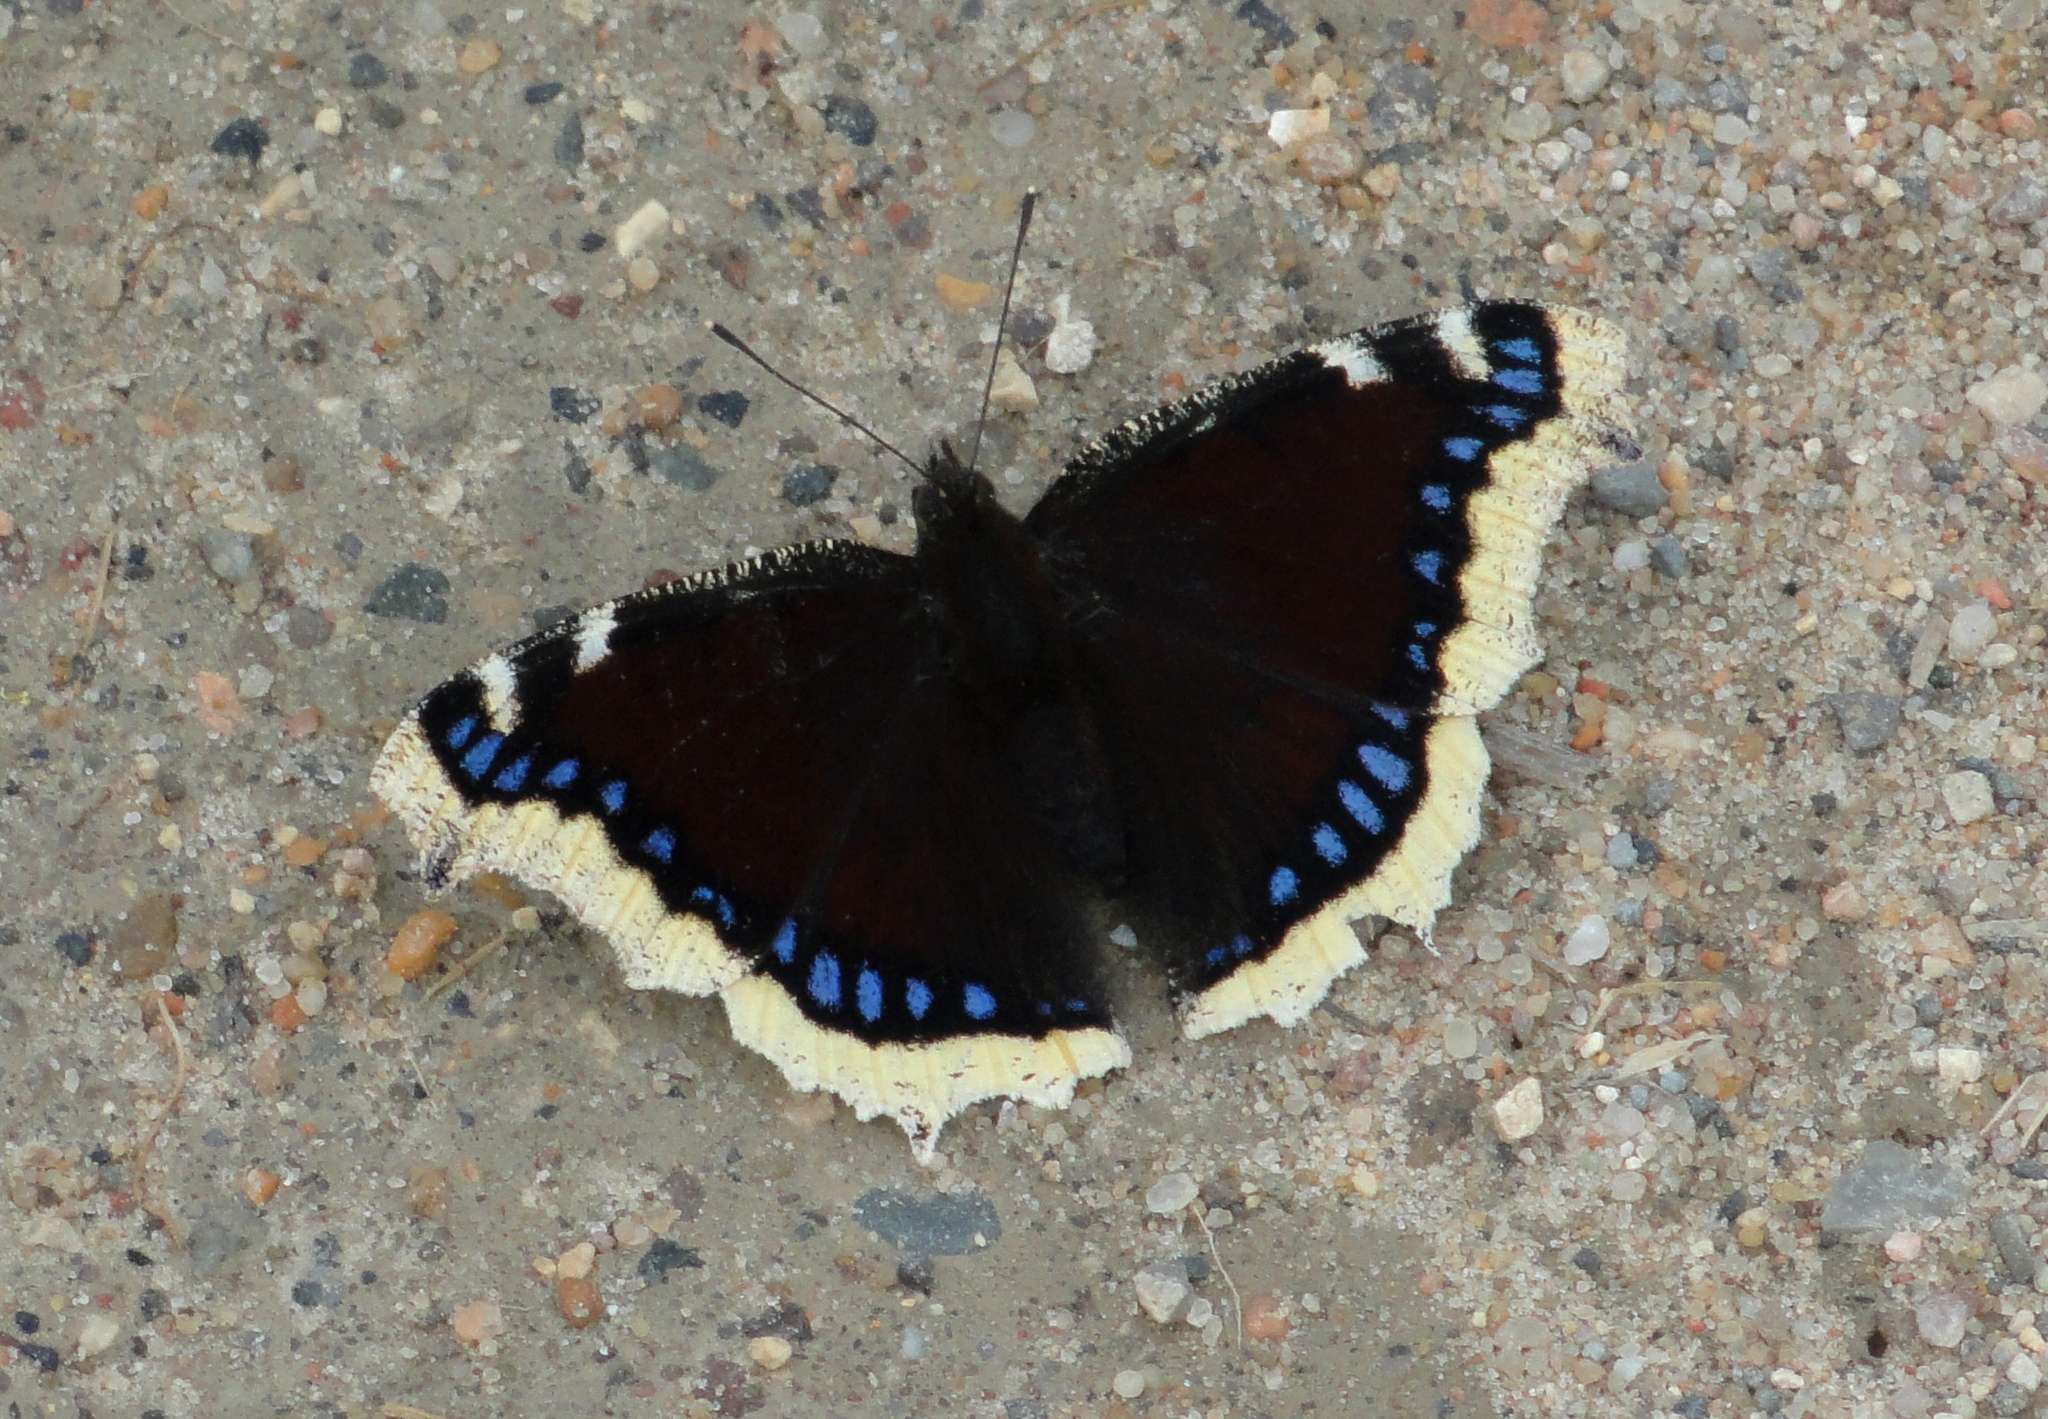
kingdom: Animalia
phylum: Arthropoda
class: Insecta
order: Lepidoptera
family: Nymphalidae
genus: Nymphalis
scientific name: Nymphalis antiopa
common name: Camberwell beauty
